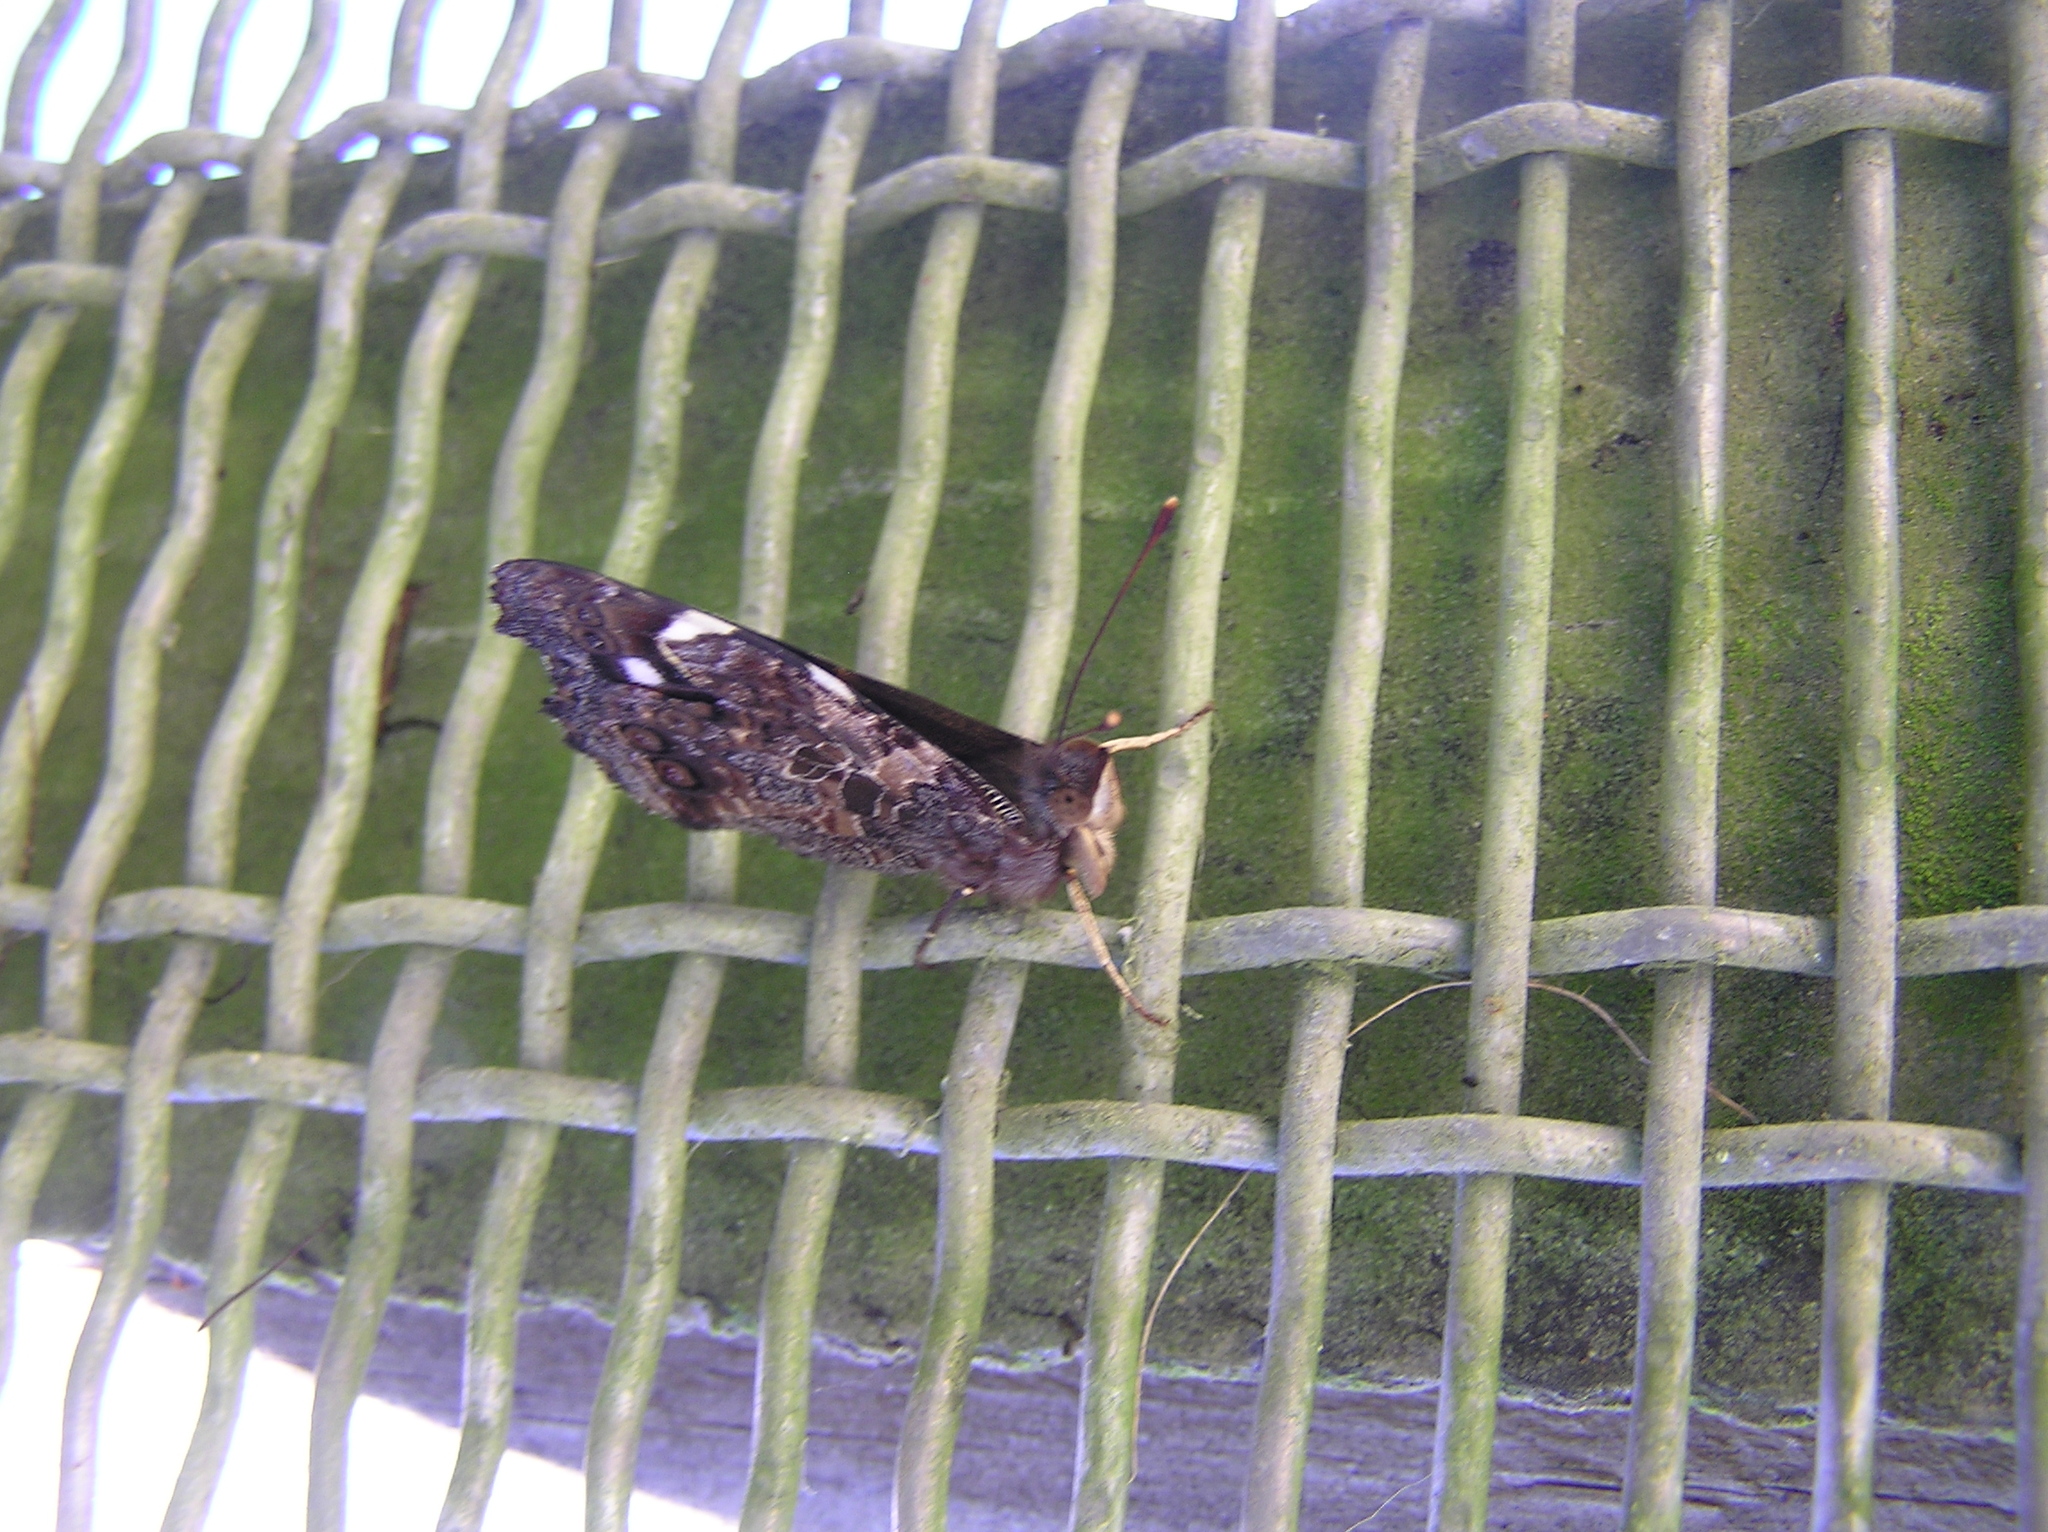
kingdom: Animalia
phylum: Arthropoda
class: Insecta
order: Lepidoptera
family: Nymphalidae
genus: Vanessa
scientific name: Vanessa gonerilla
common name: New zealand red admiral
